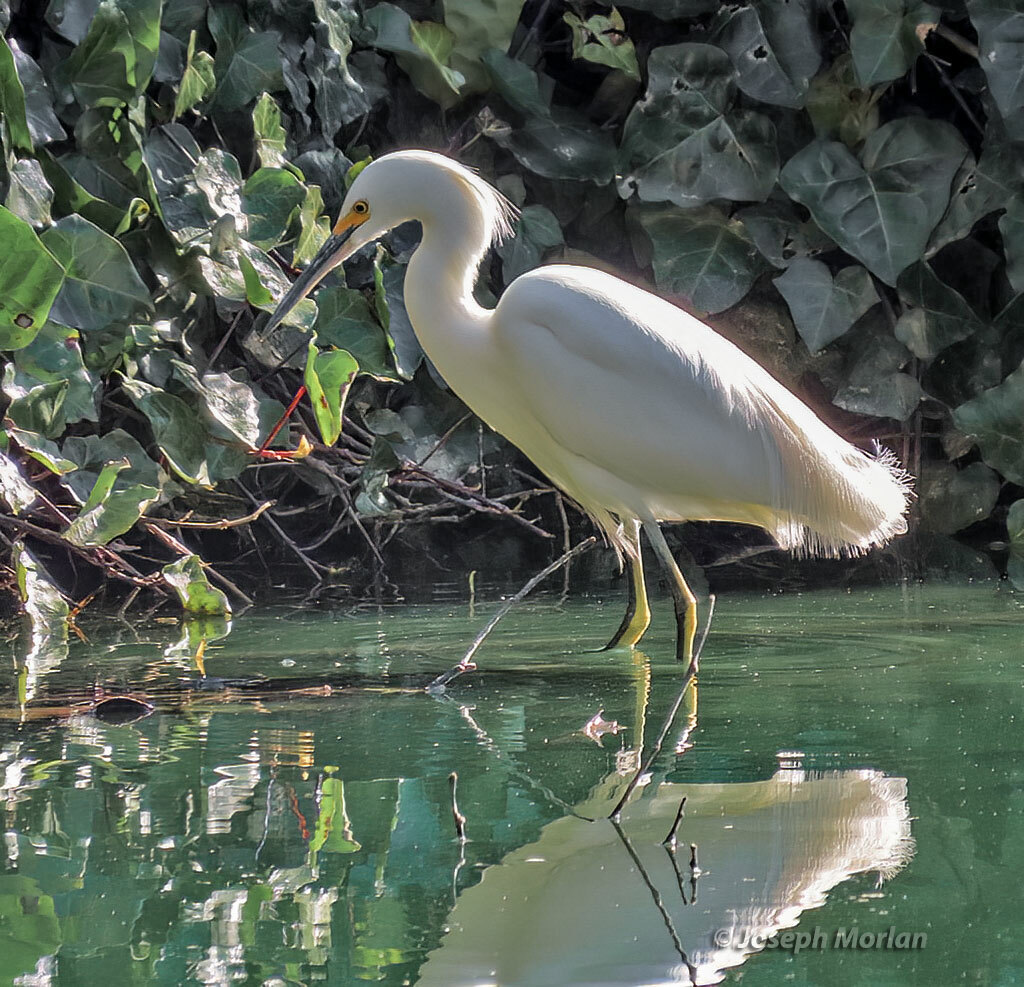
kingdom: Animalia
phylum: Chordata
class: Aves
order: Pelecaniformes
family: Ardeidae
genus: Egretta
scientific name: Egretta thula
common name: Snowy egret
